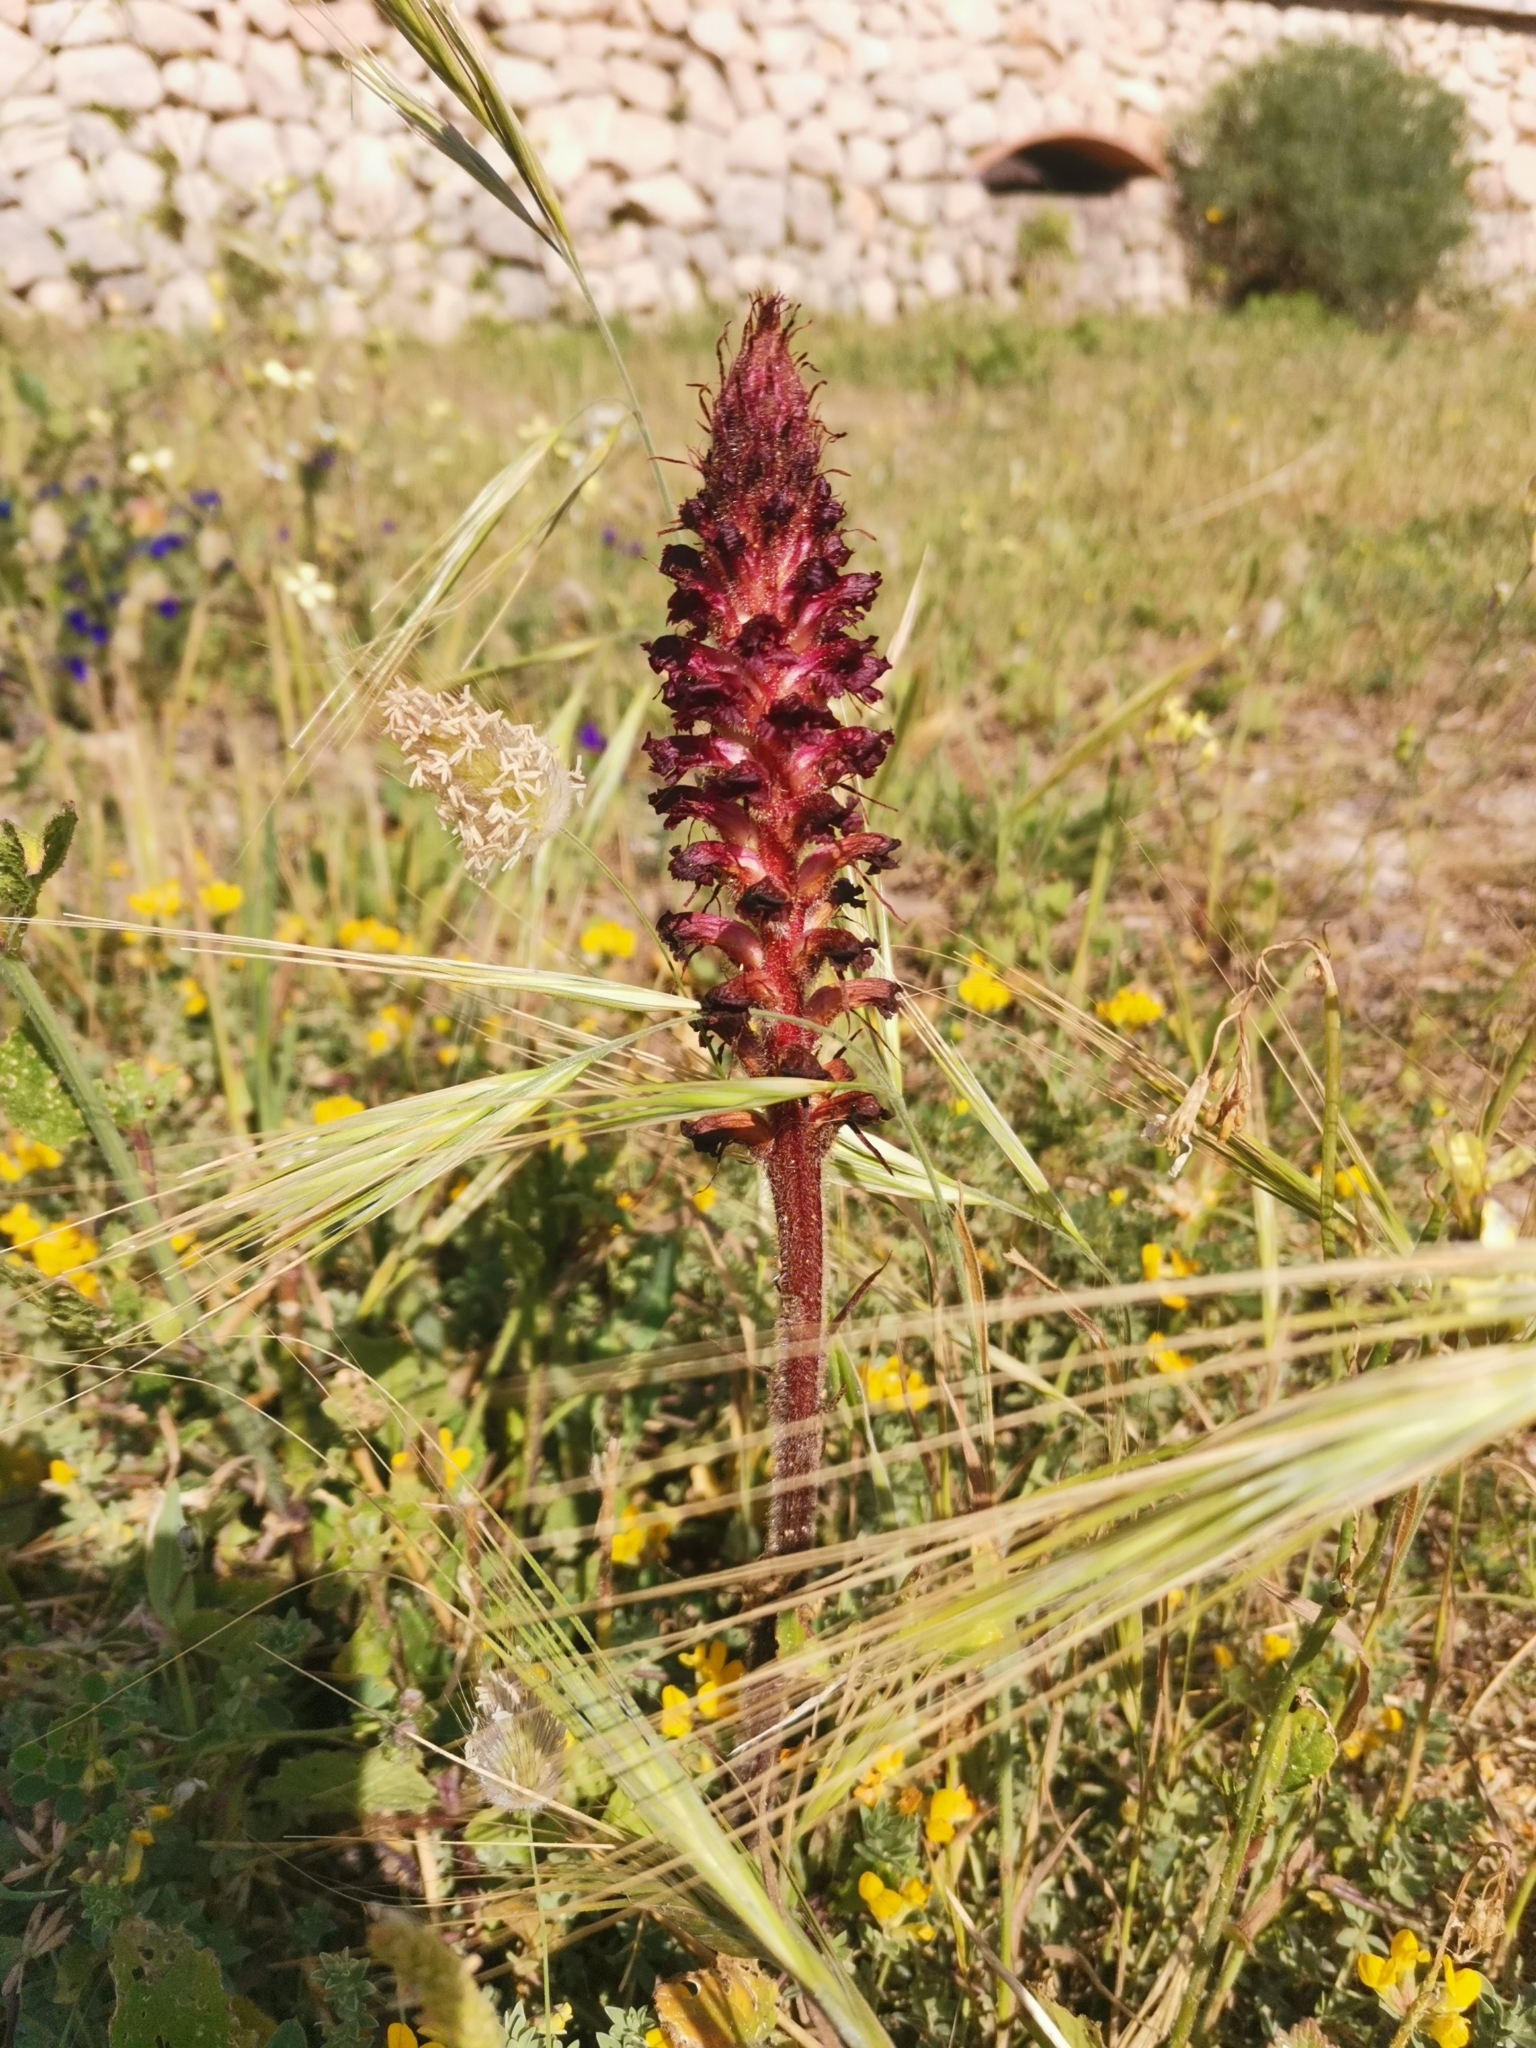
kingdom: Plantae
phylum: Tracheophyta
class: Magnoliopsida
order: Lamiales
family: Orobanchaceae
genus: Orobanche
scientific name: Orobanche sanguinea
